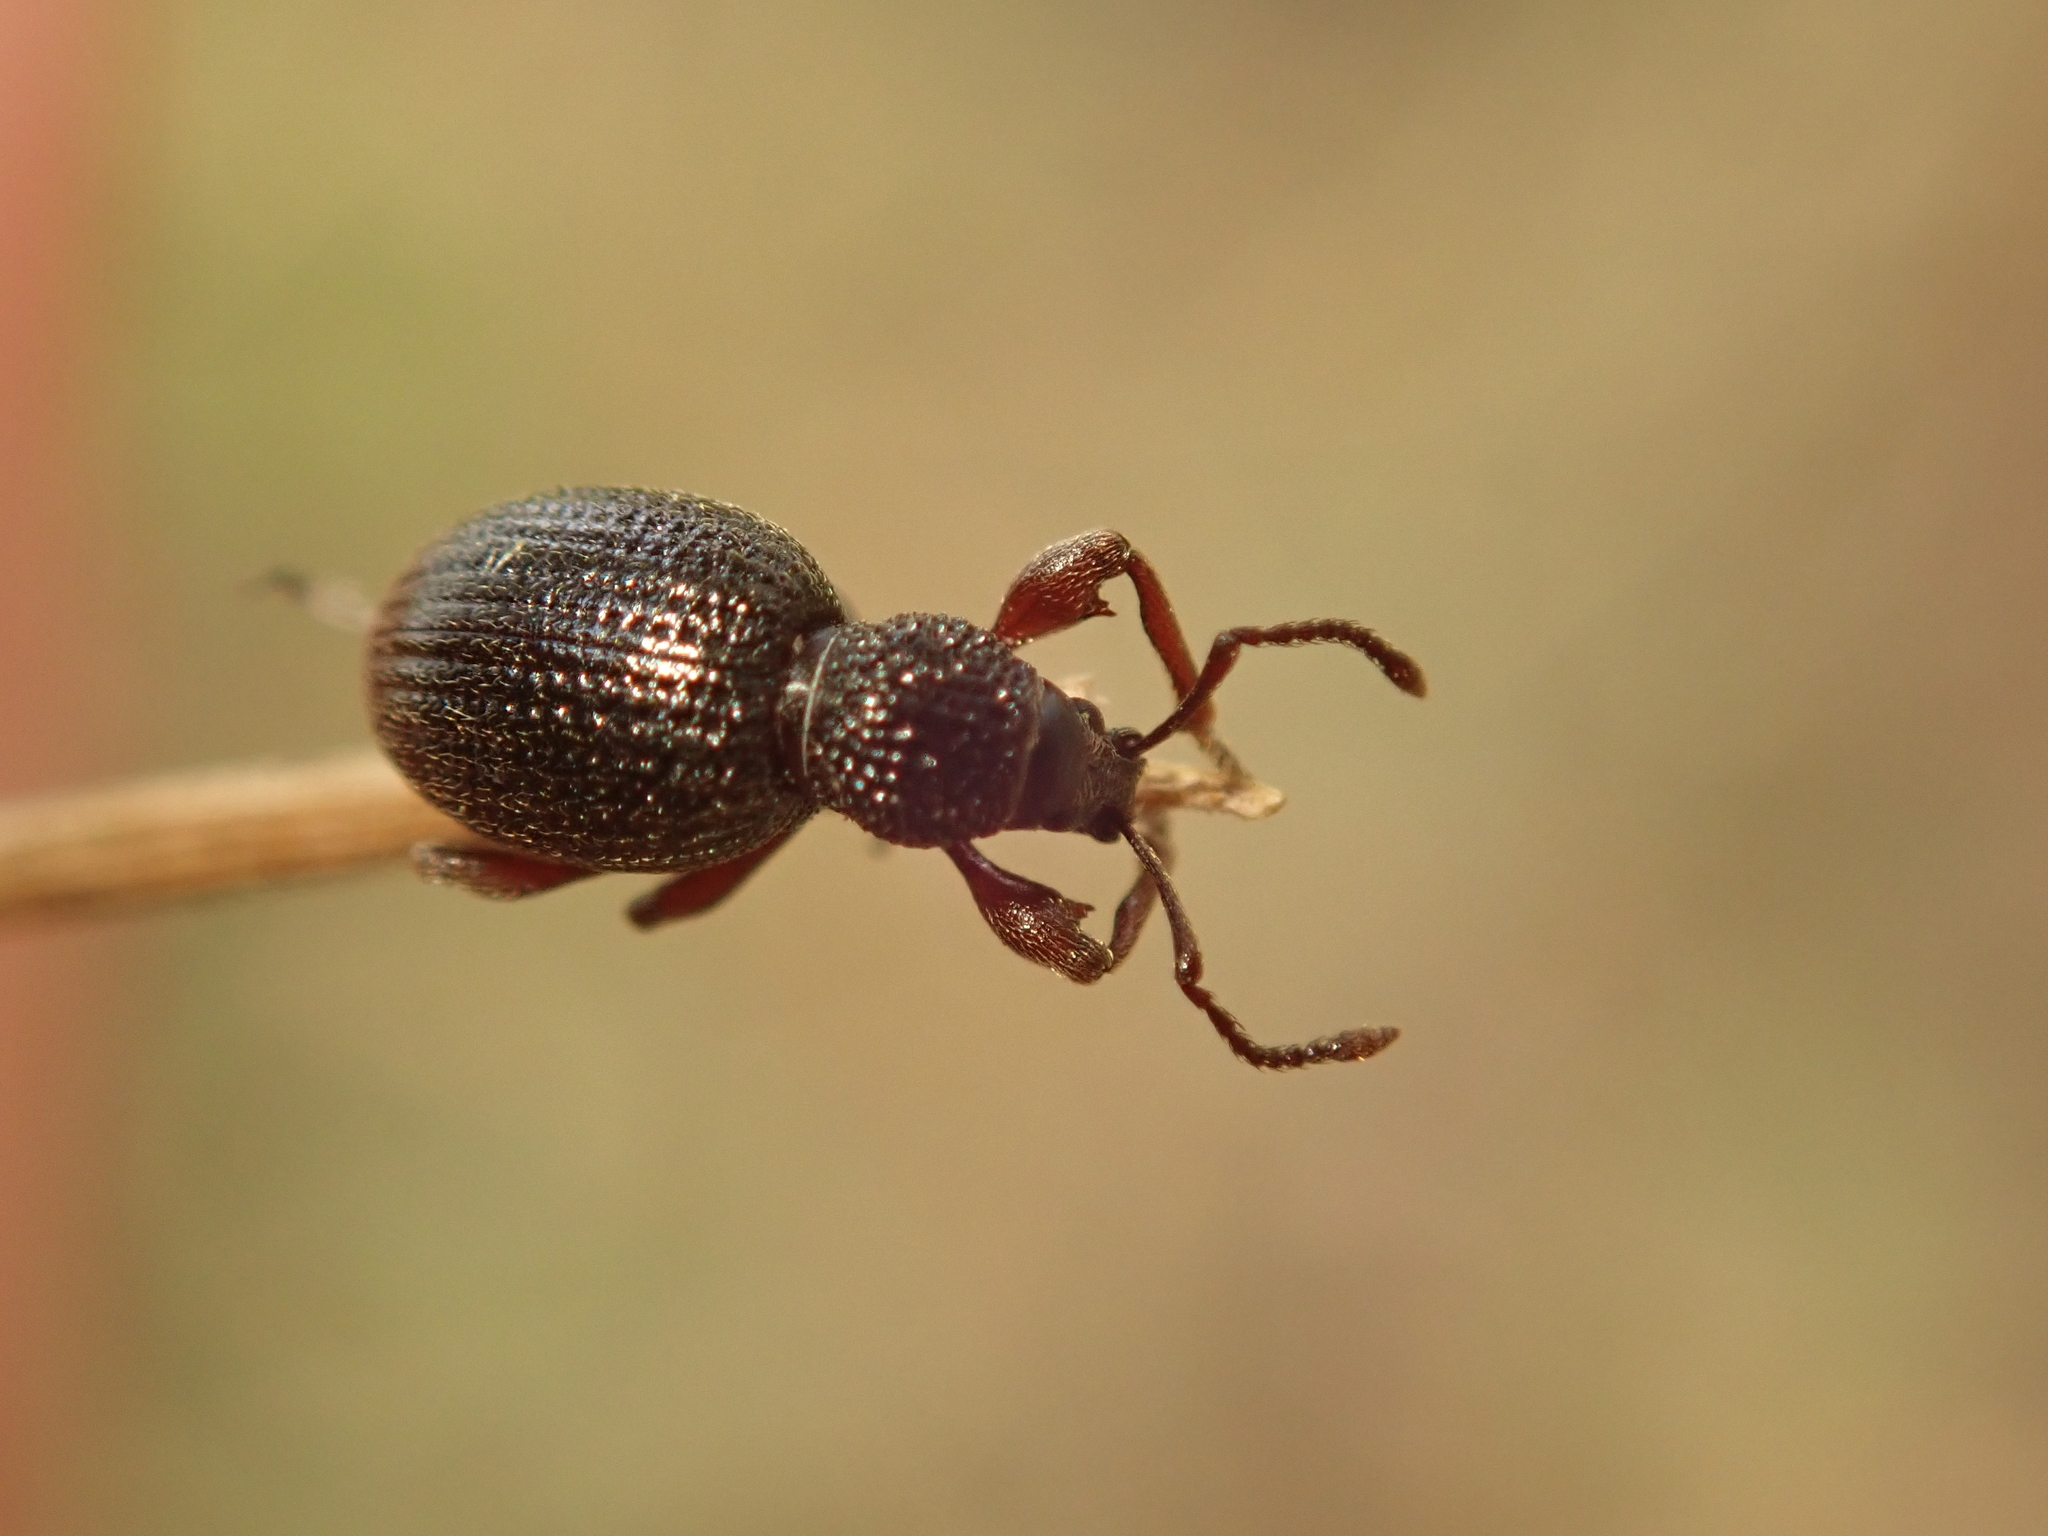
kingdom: Animalia
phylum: Arthropoda
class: Insecta
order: Coleoptera
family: Curculionidae
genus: Otiorhynchus
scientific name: Otiorhynchus ovatus
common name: Strawberry root weevil
